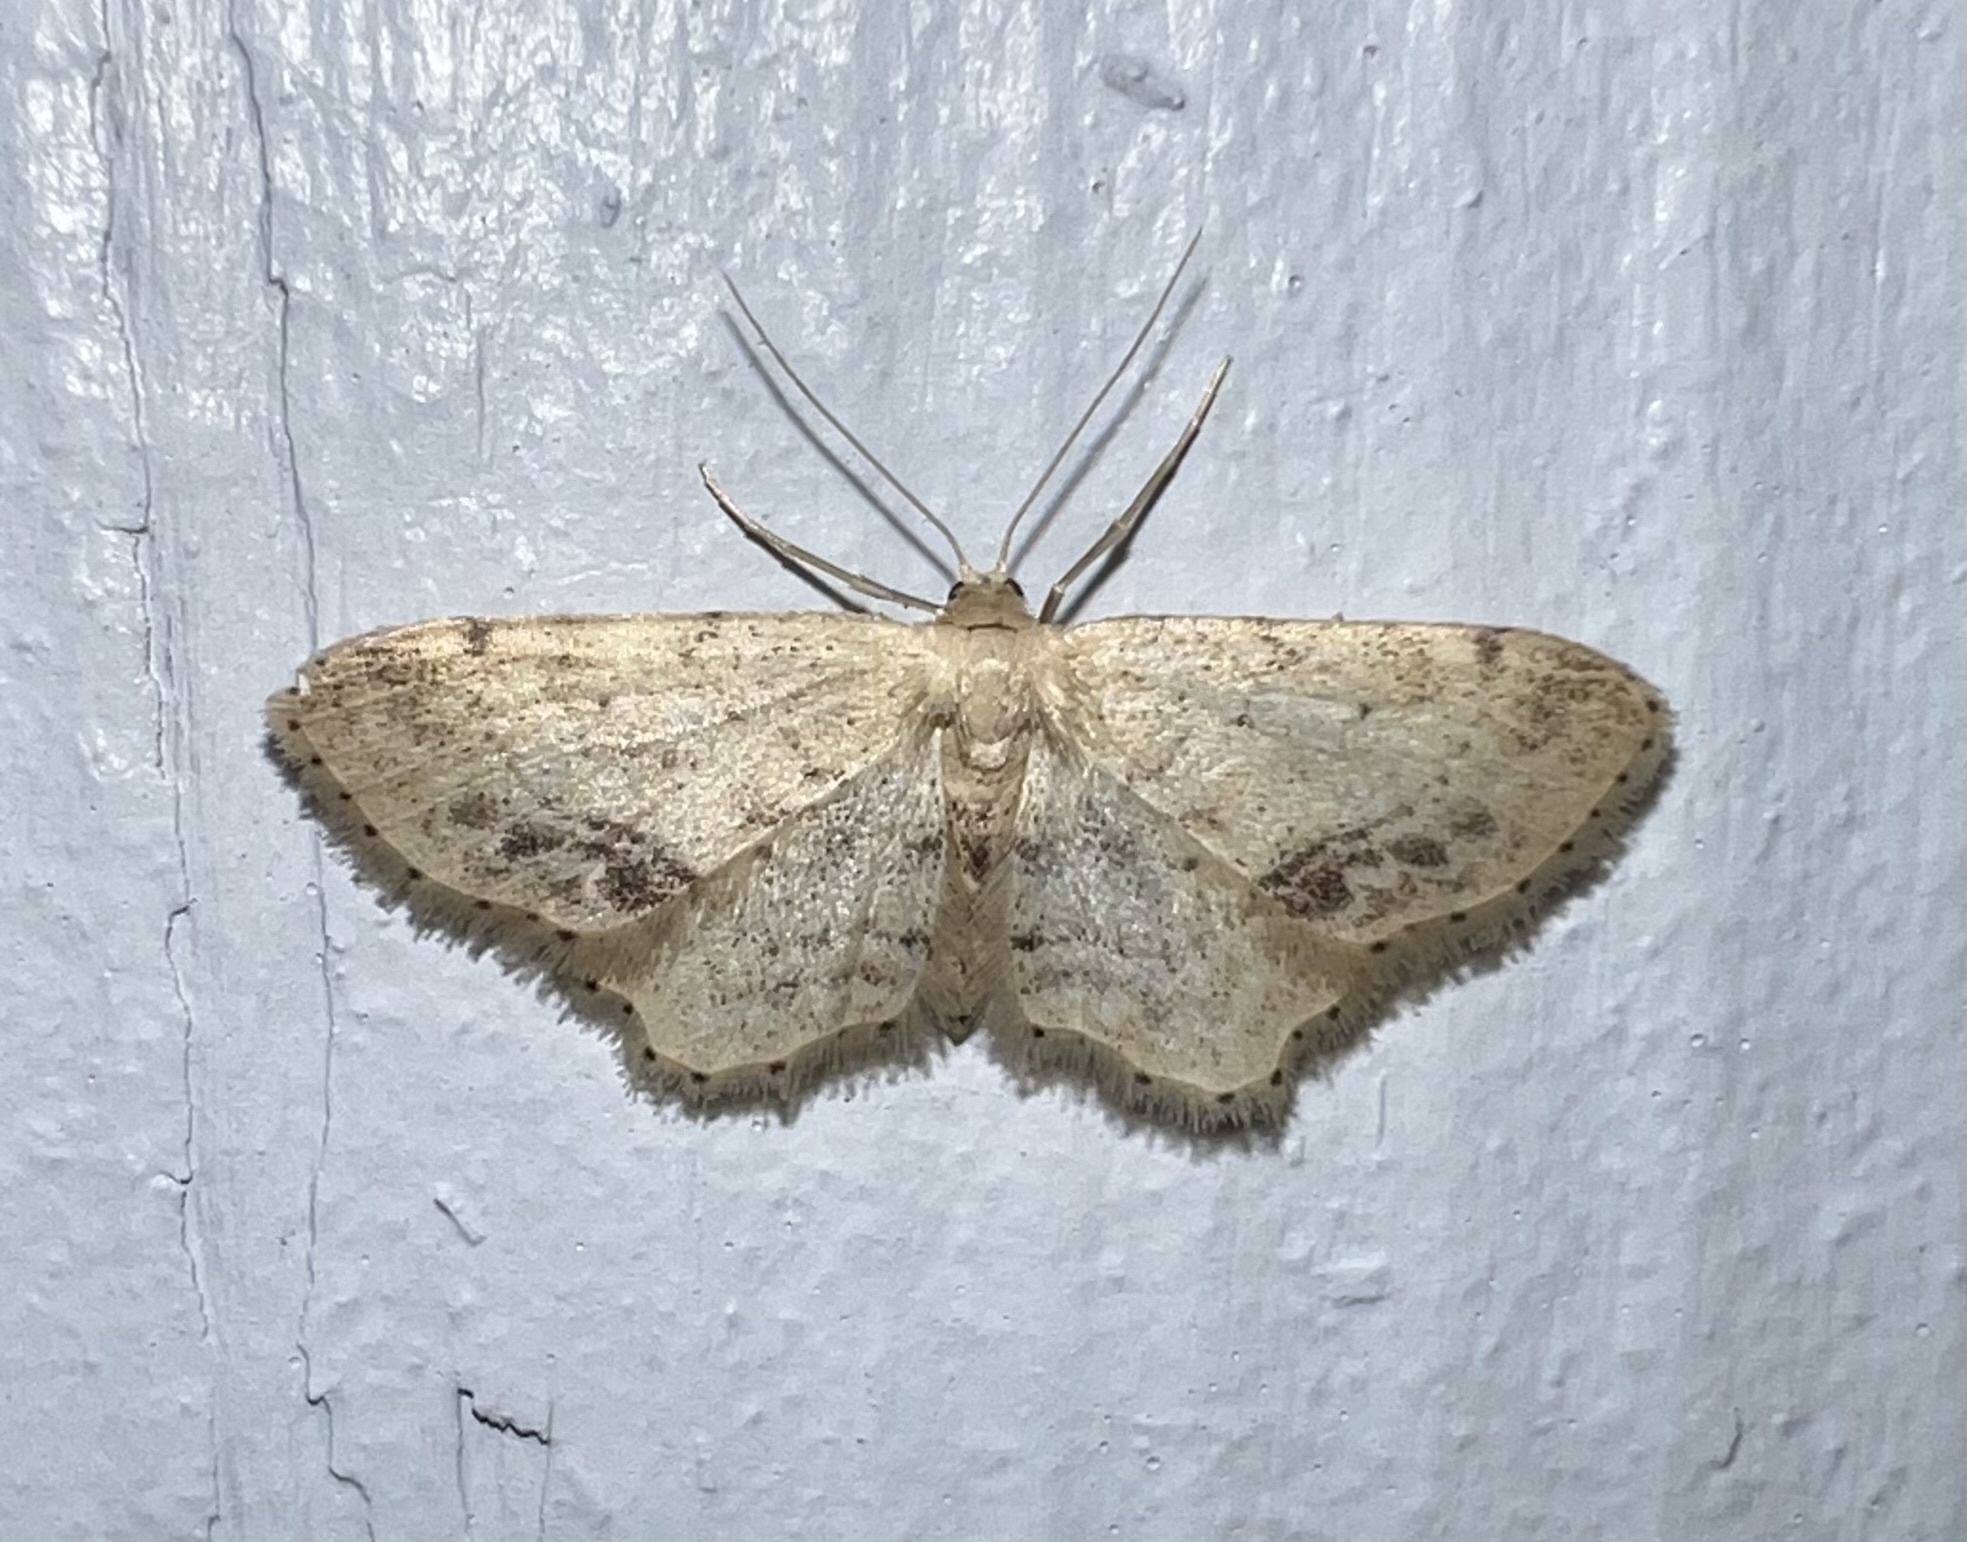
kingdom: Animalia
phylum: Arthropoda
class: Insecta
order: Lepidoptera
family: Geometridae
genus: Idaea
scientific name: Idaea dimidiata
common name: Single-dotted wave
